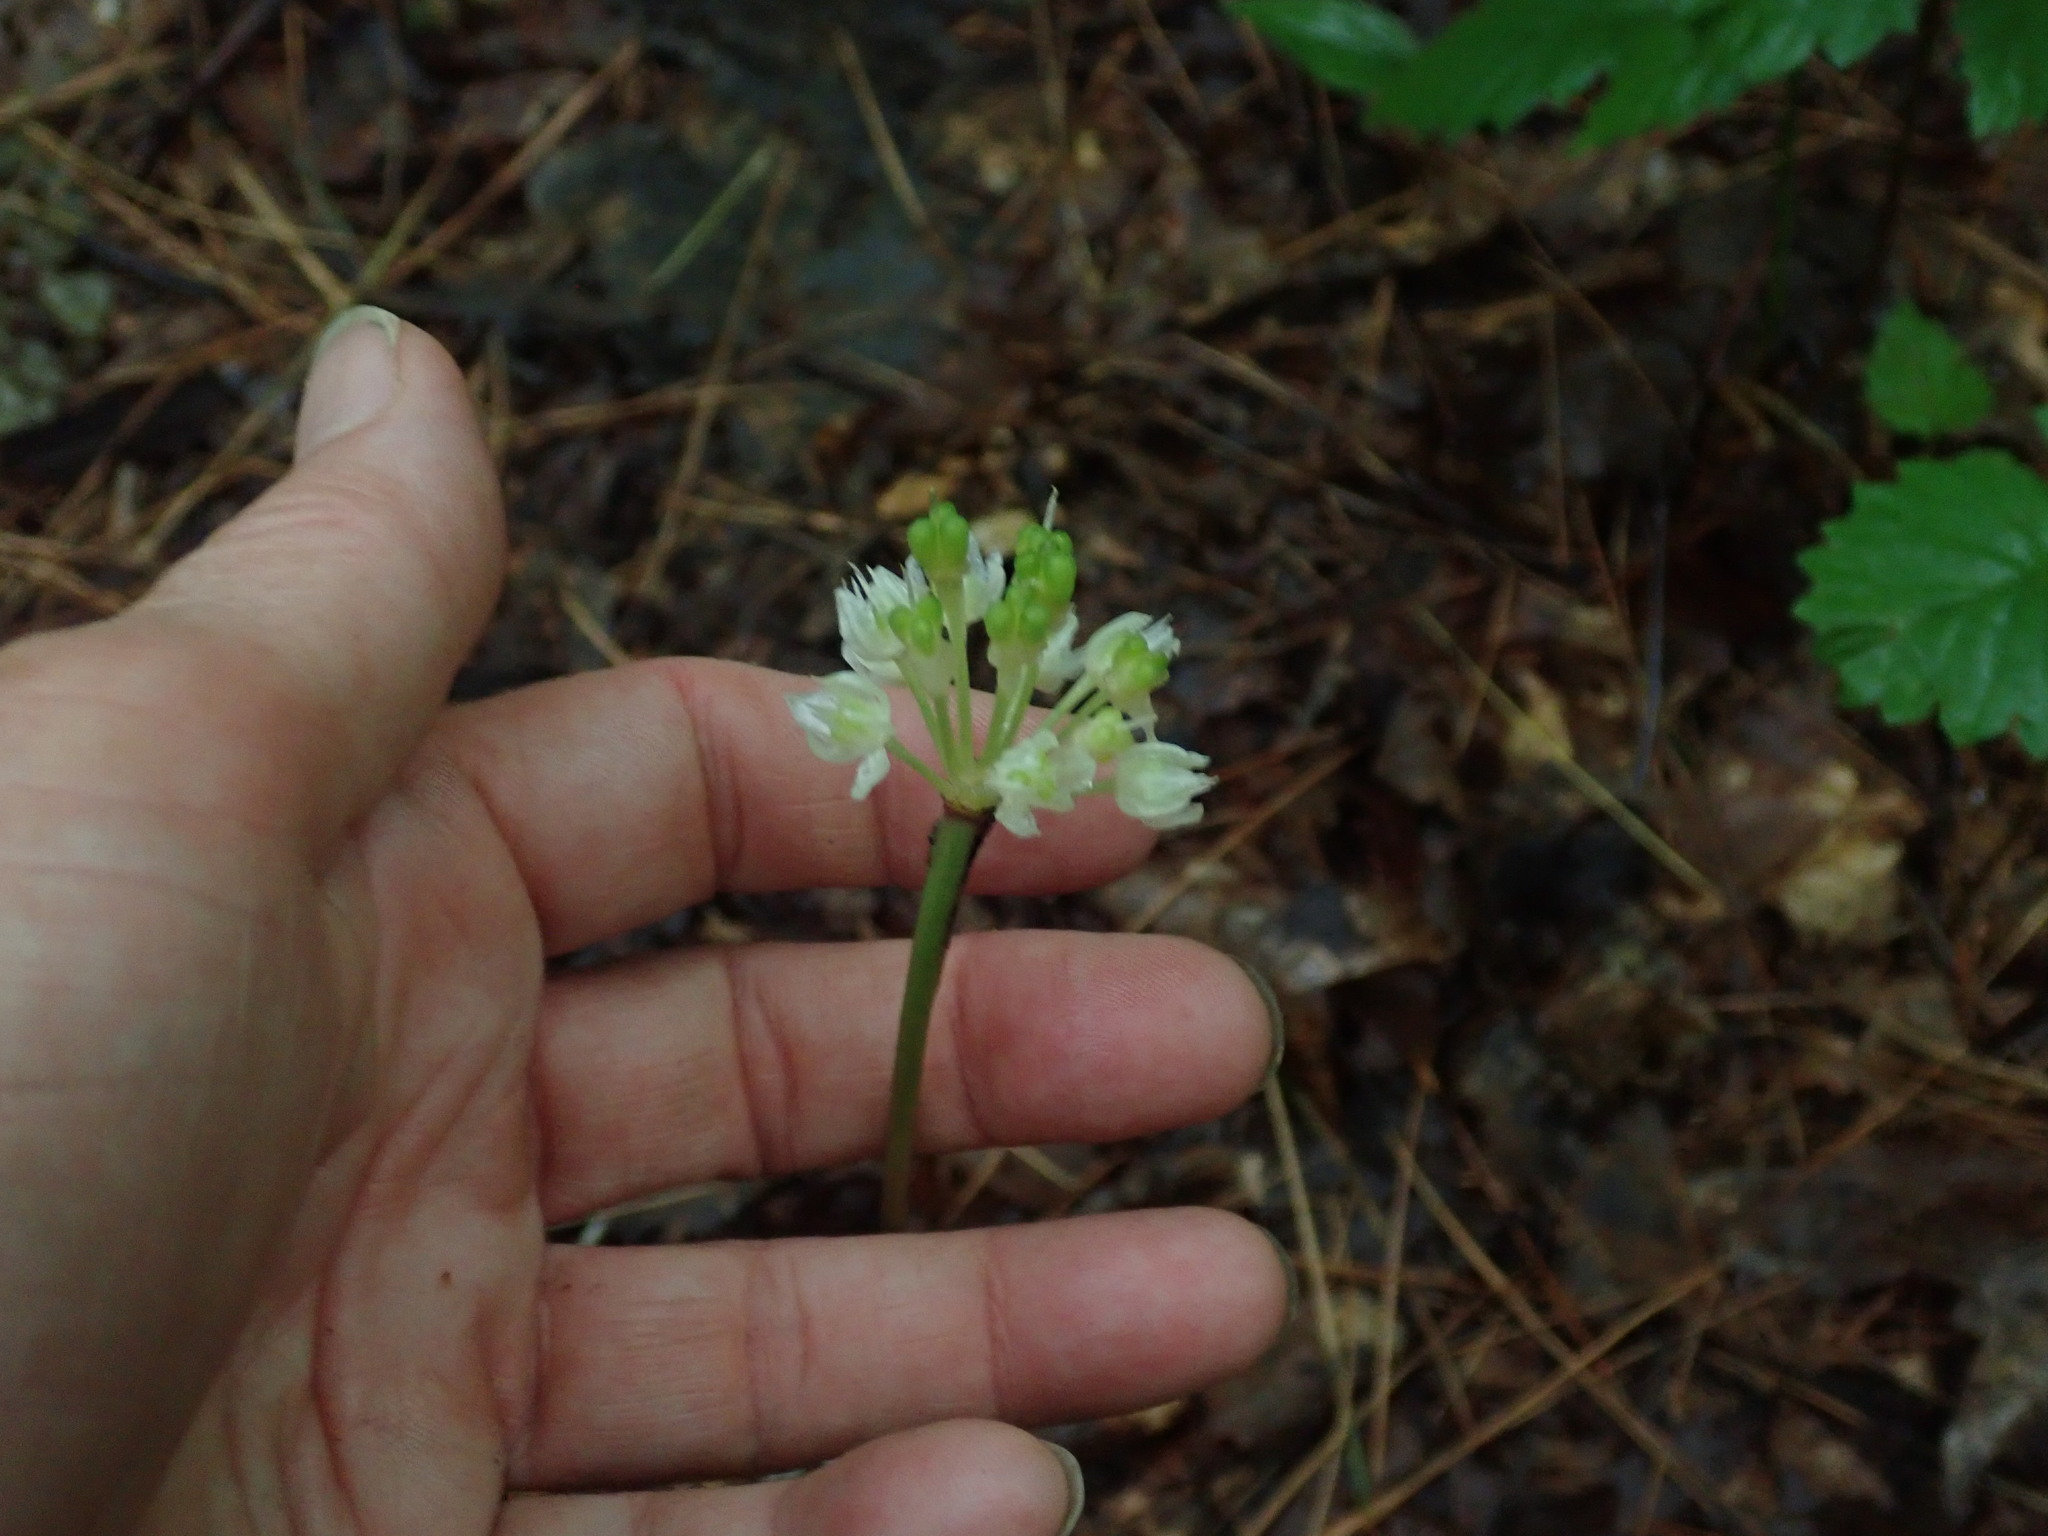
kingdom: Plantae
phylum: Tracheophyta
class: Liliopsida
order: Asparagales
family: Amaryllidaceae
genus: Allium
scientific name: Allium tricoccum
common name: Ramp
